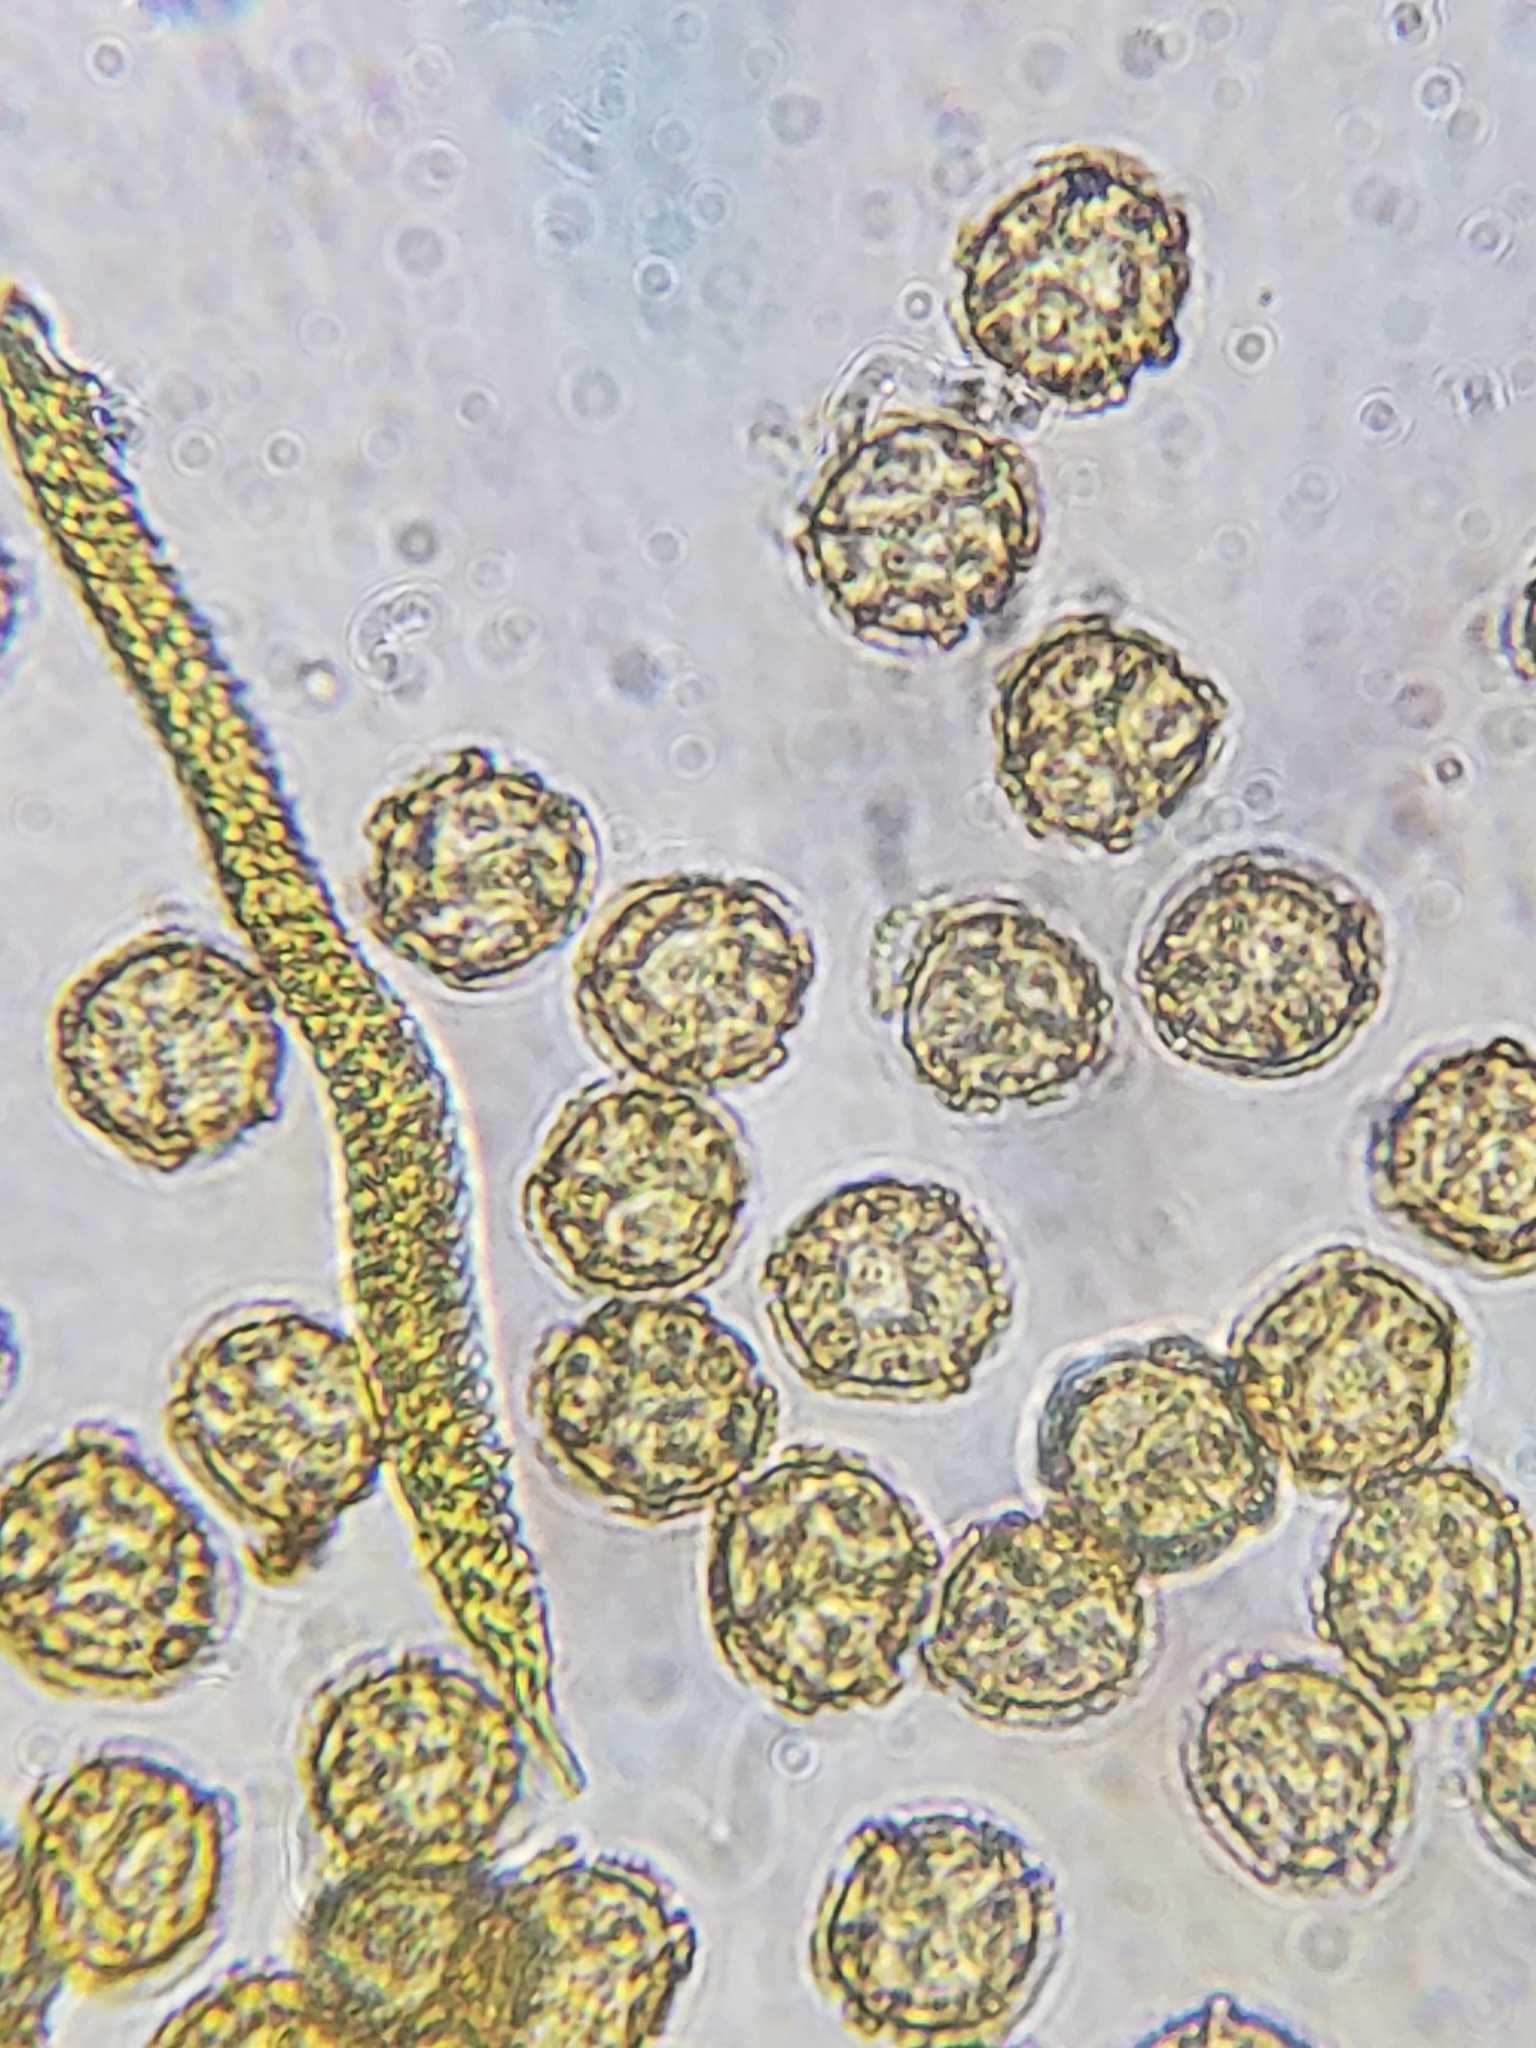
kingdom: Protozoa
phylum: Mycetozoa
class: Myxomycetes
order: Trichiales
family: Trichiaceae
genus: Oligonema
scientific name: Oligonema persimile
